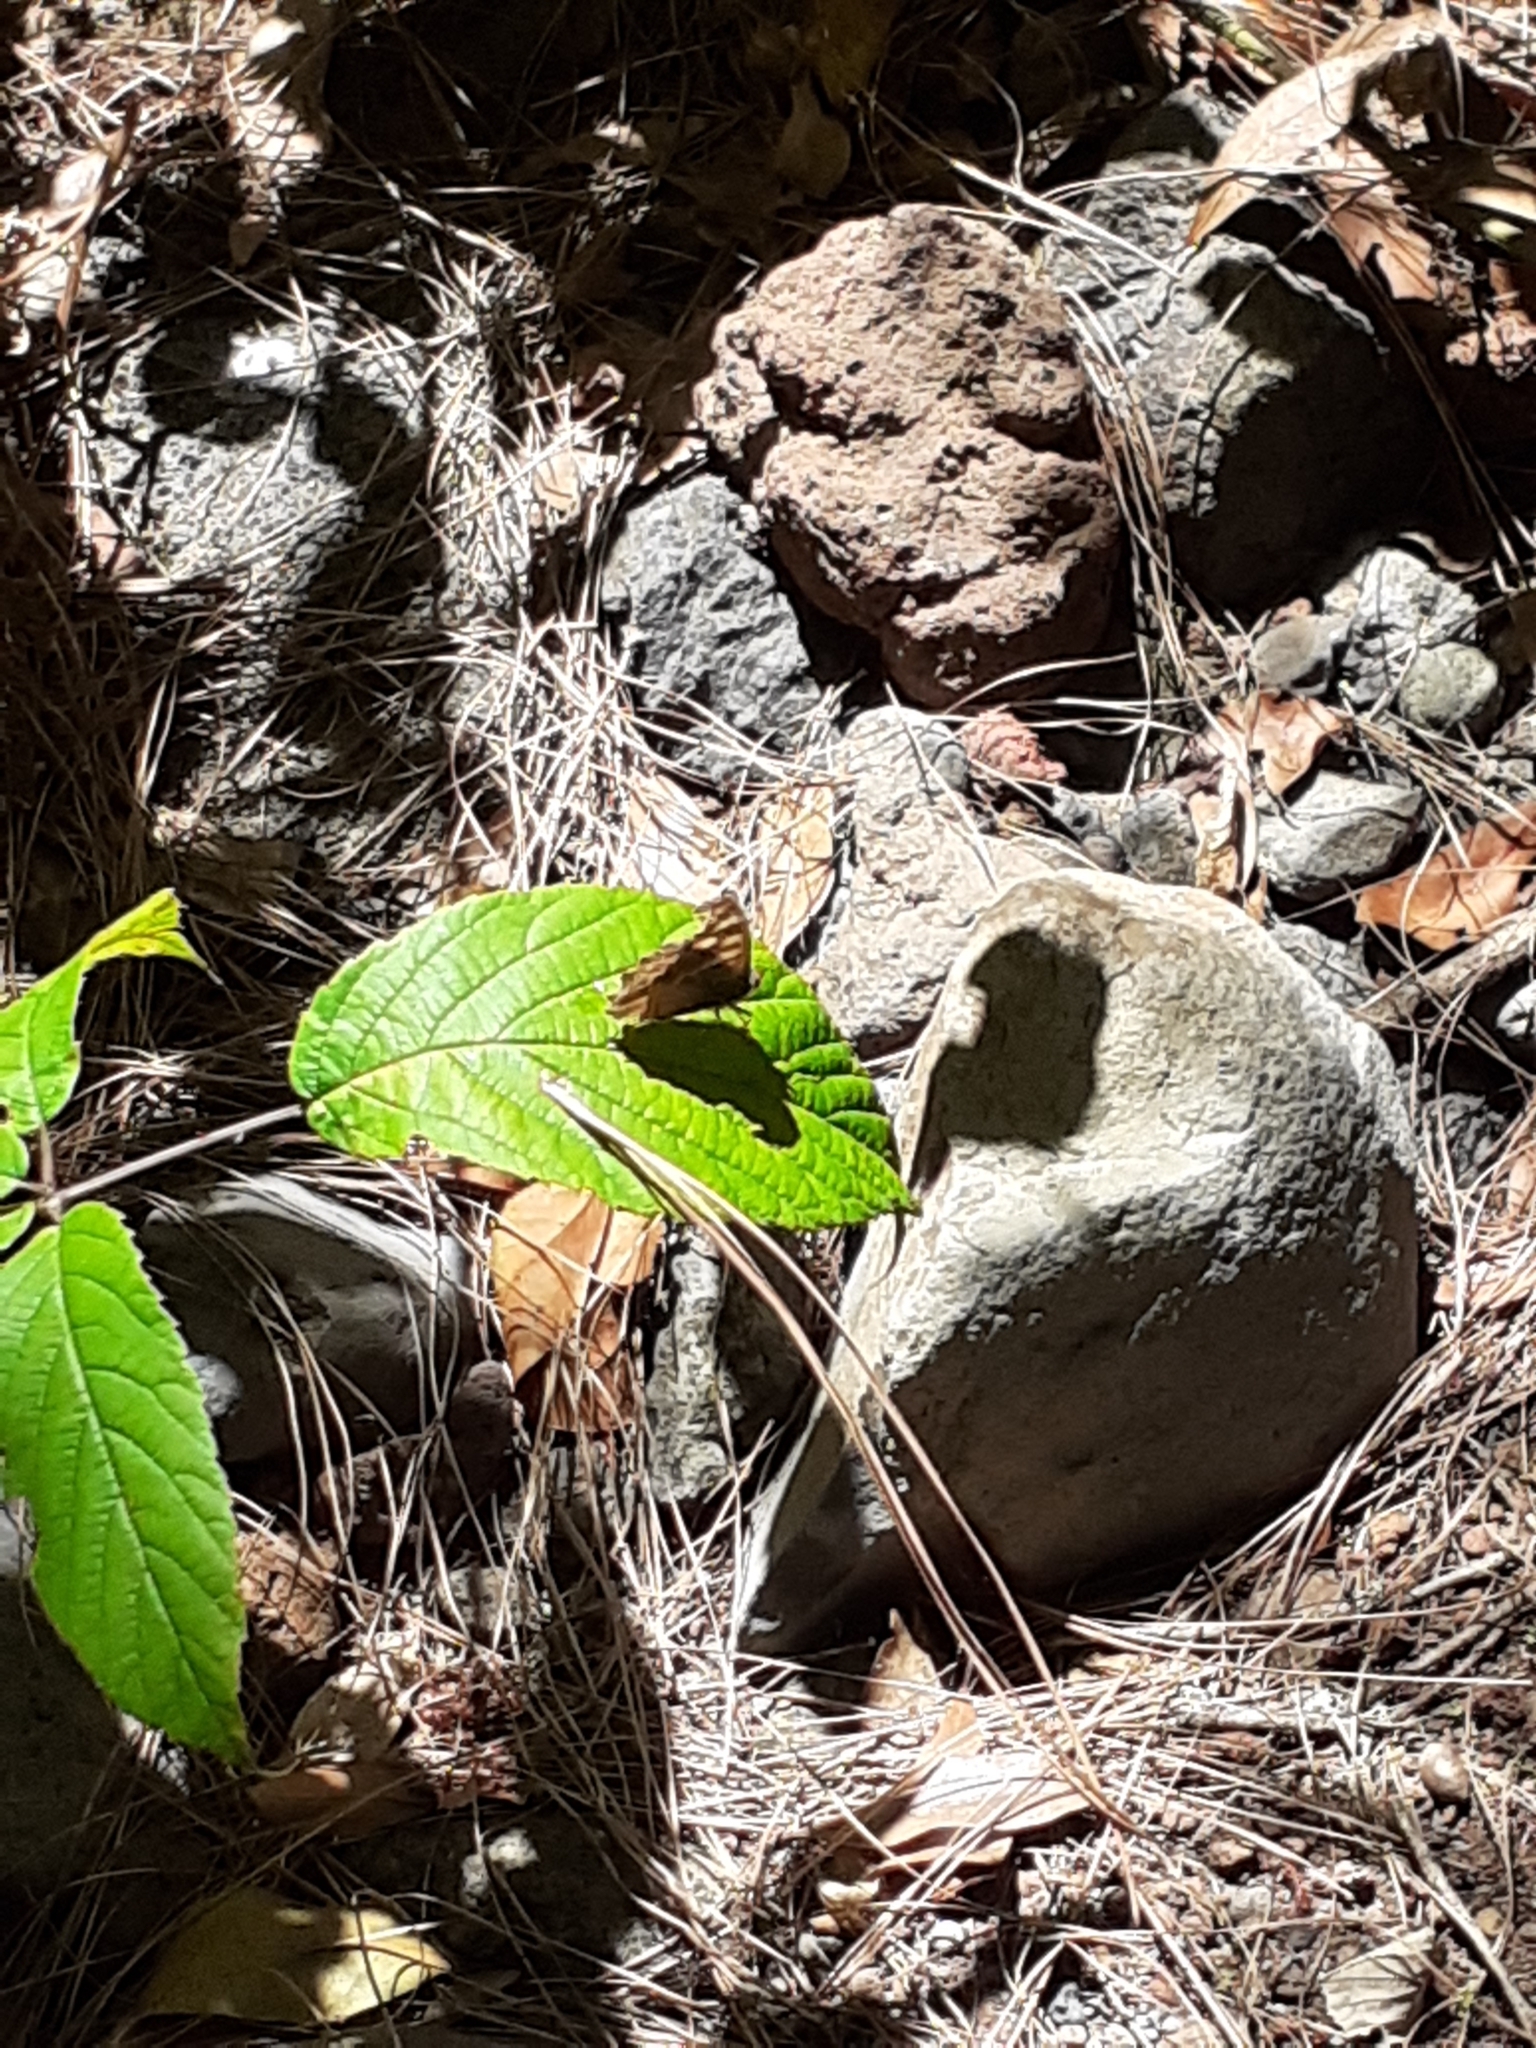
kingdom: Animalia
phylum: Arthropoda
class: Insecta
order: Lepidoptera
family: Nymphalidae
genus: Pararge
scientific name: Pararge aegeria
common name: Speckled wood
